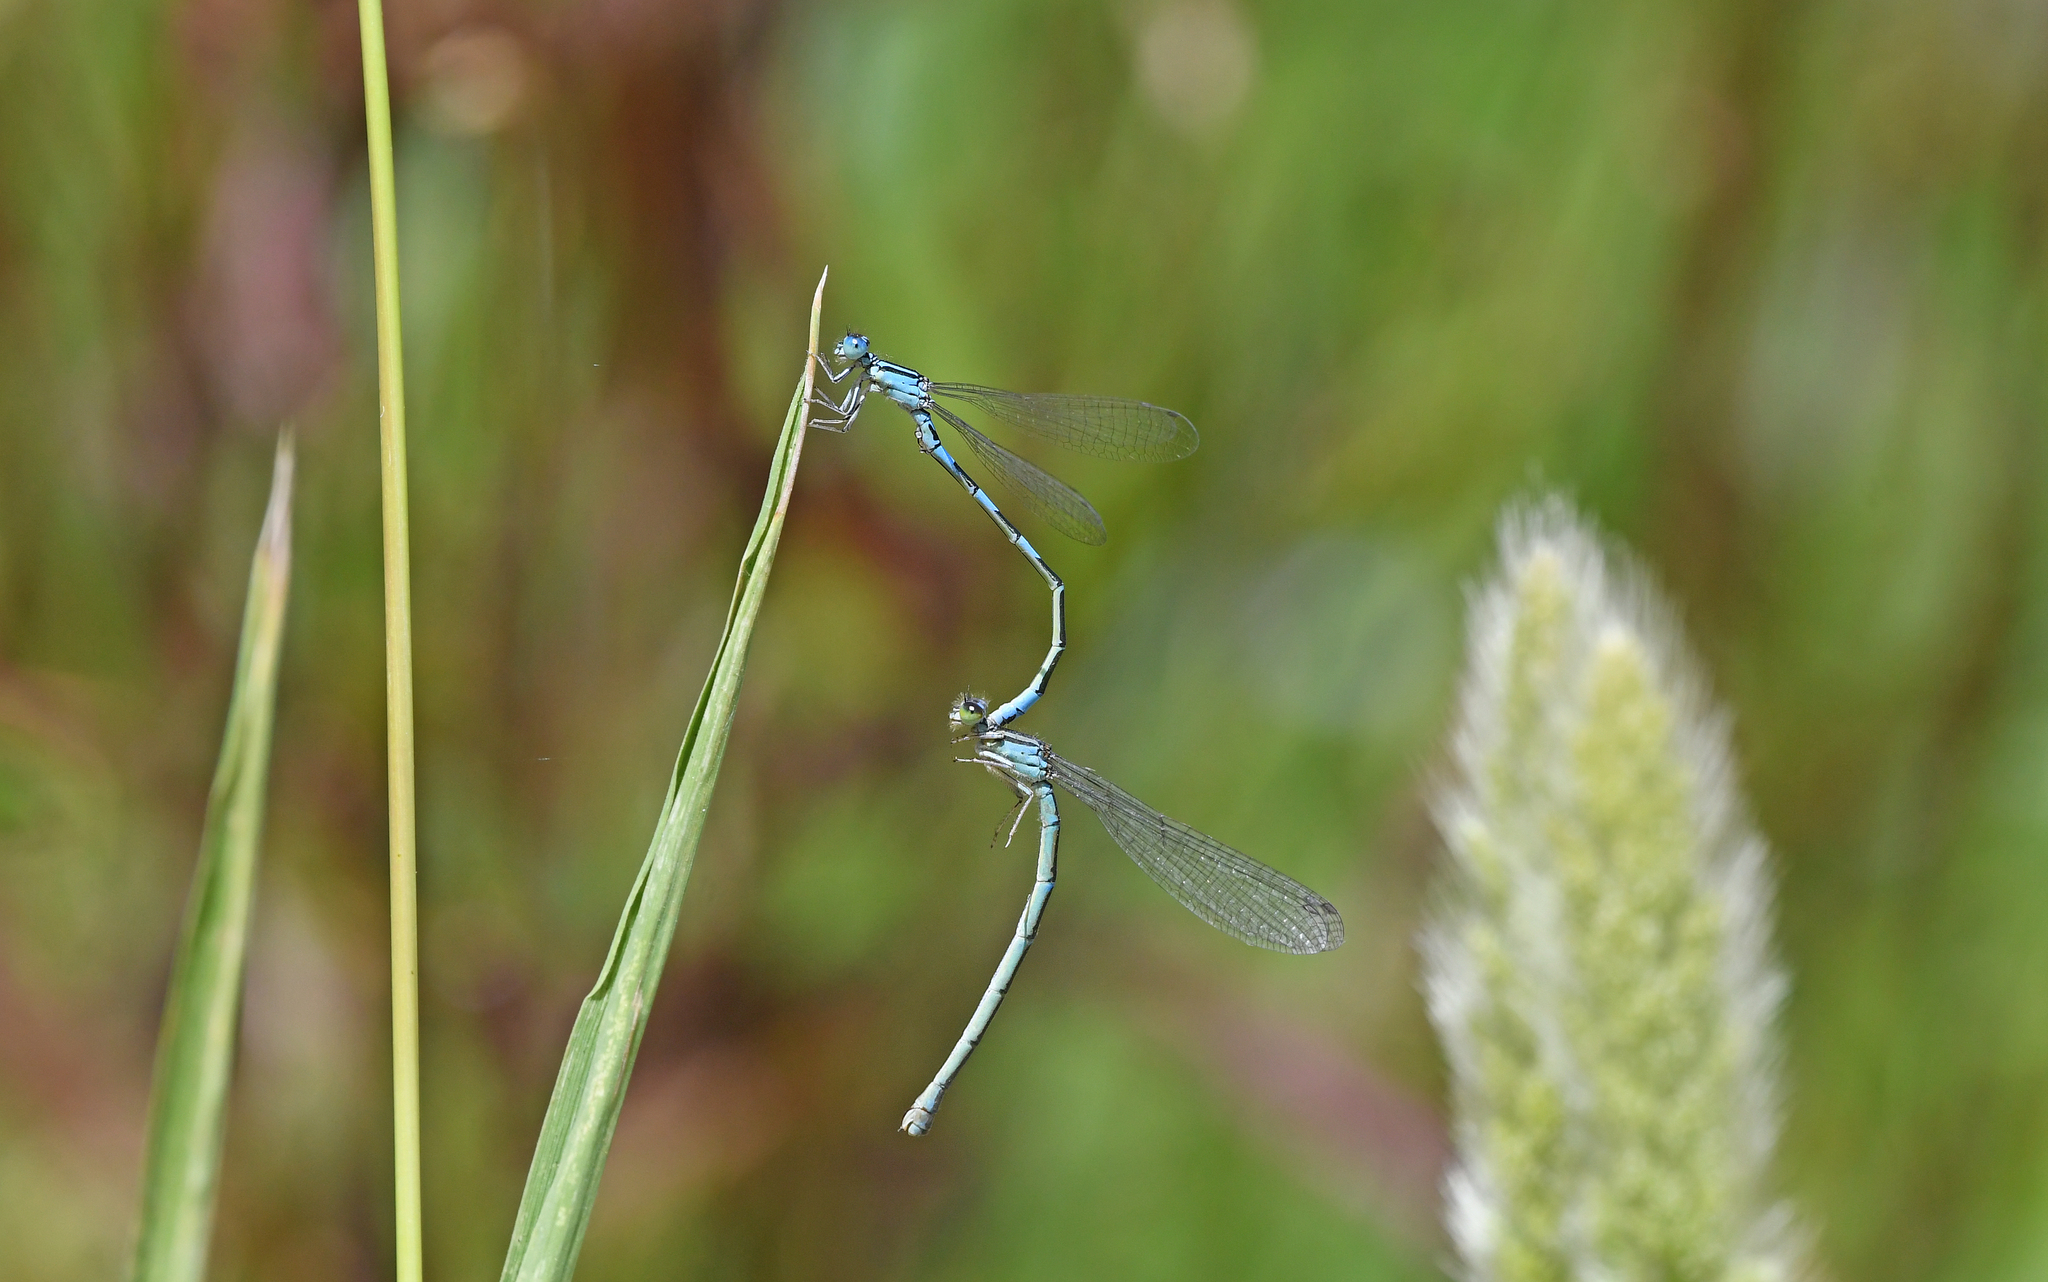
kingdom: Animalia
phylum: Arthropoda
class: Insecta
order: Odonata
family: Coenagrionidae
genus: Coenagrion
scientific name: Coenagrion caerulescens
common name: Mediterranean bluet
